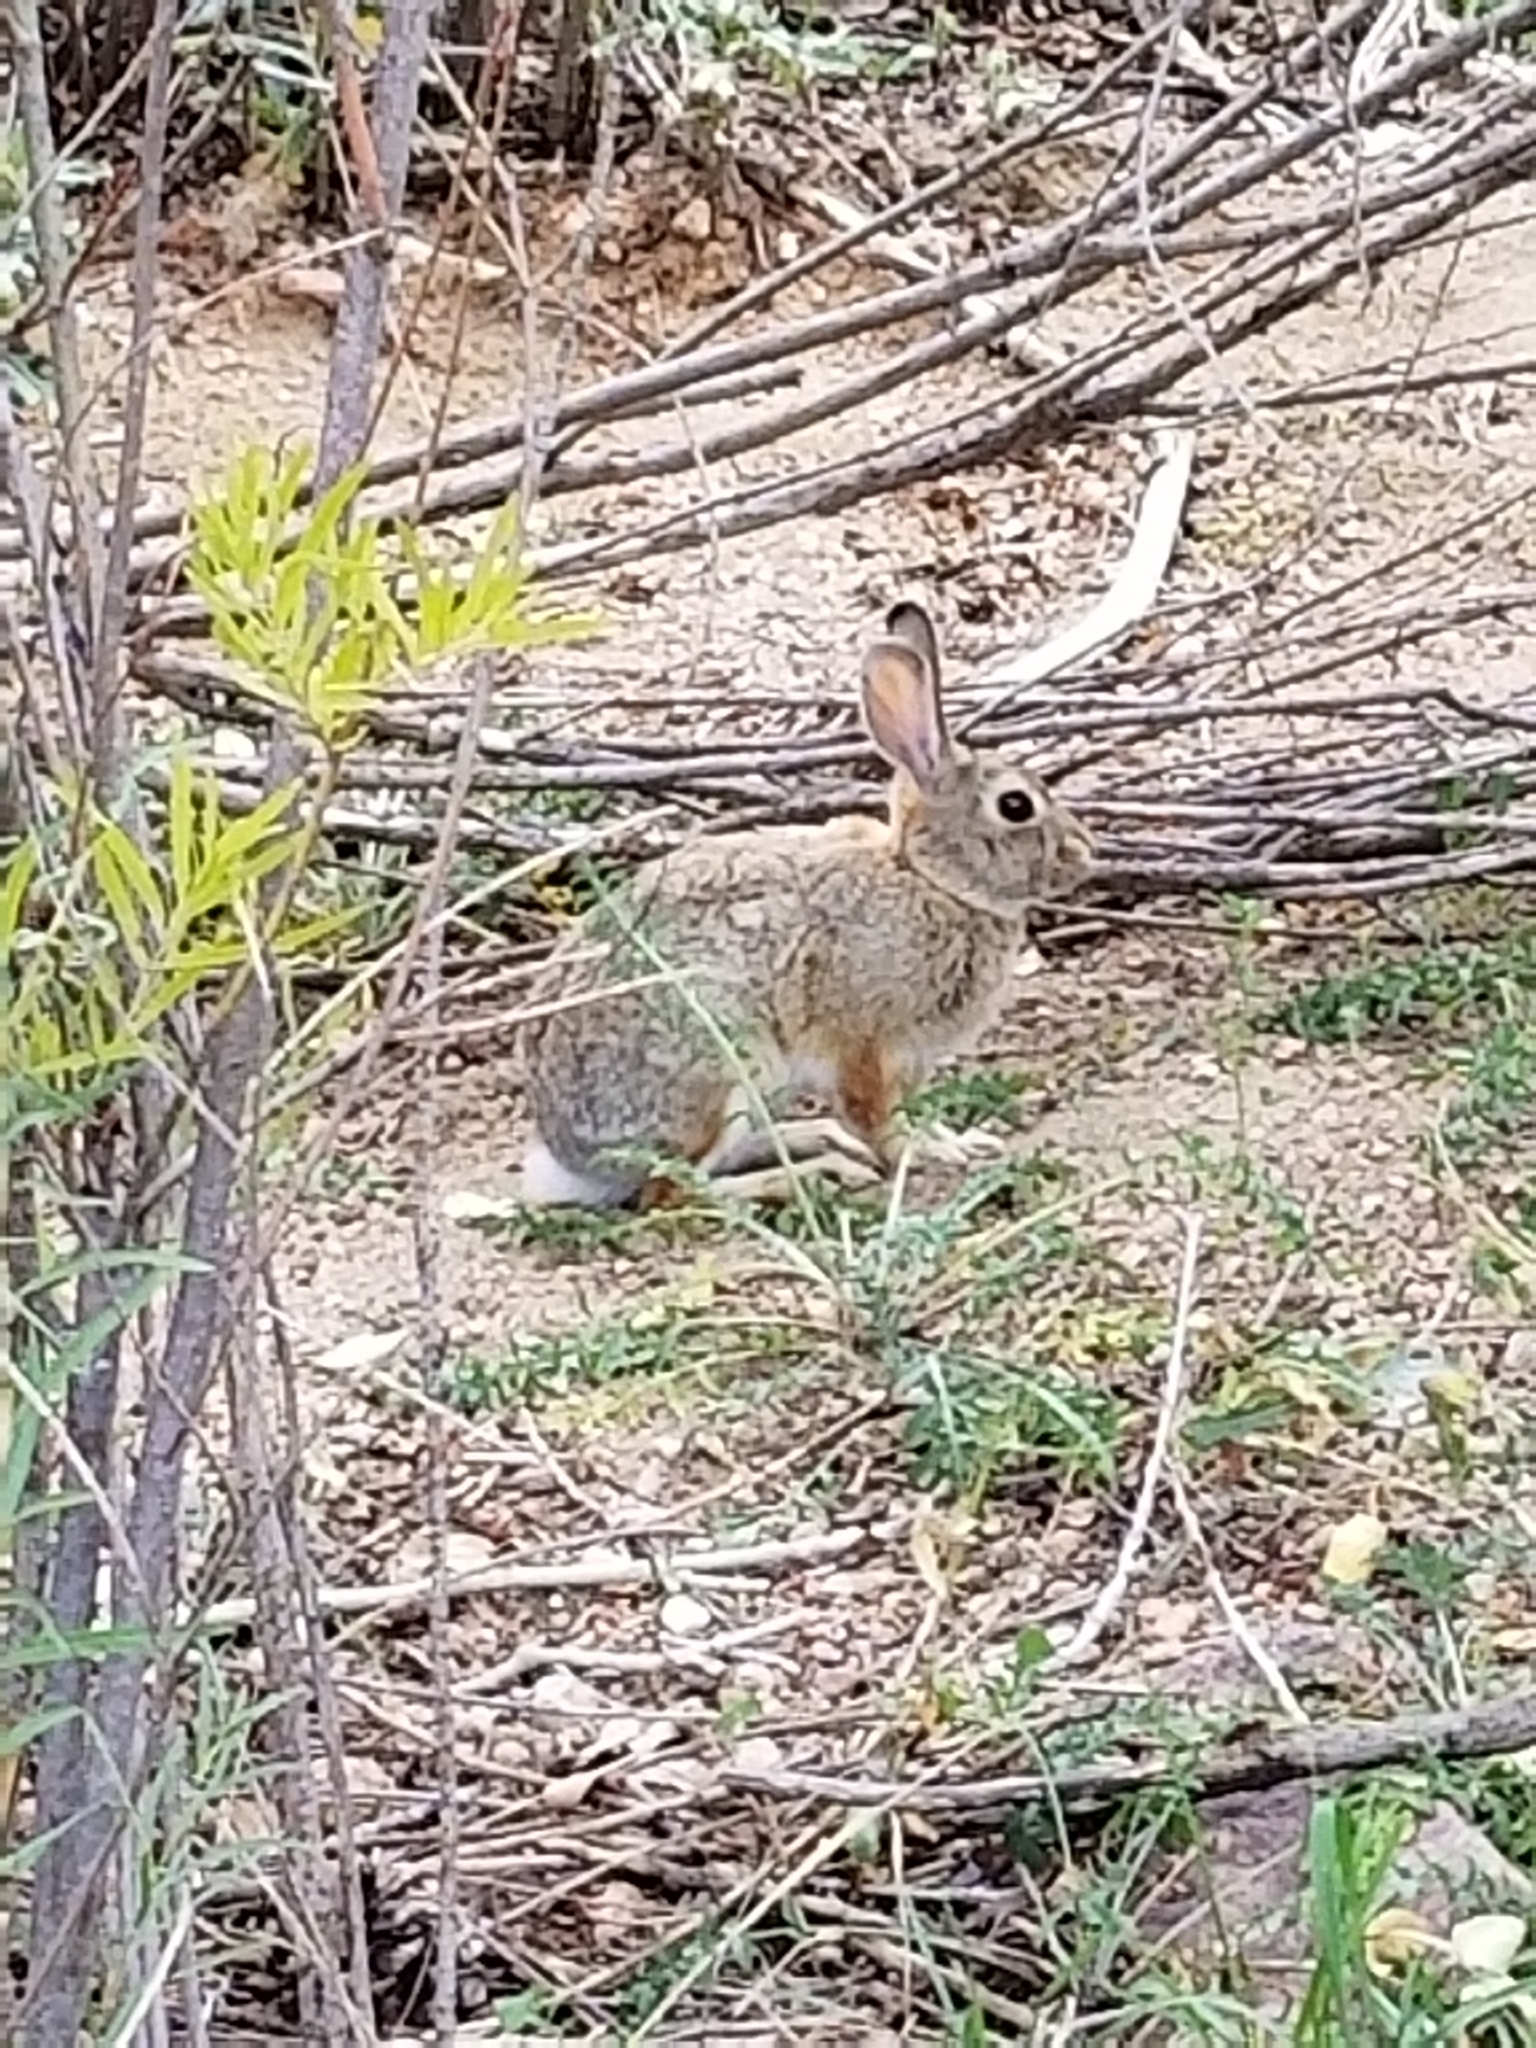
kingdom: Animalia
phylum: Chordata
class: Mammalia
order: Lagomorpha
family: Leporidae
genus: Sylvilagus
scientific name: Sylvilagus audubonii
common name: Desert cottontail
